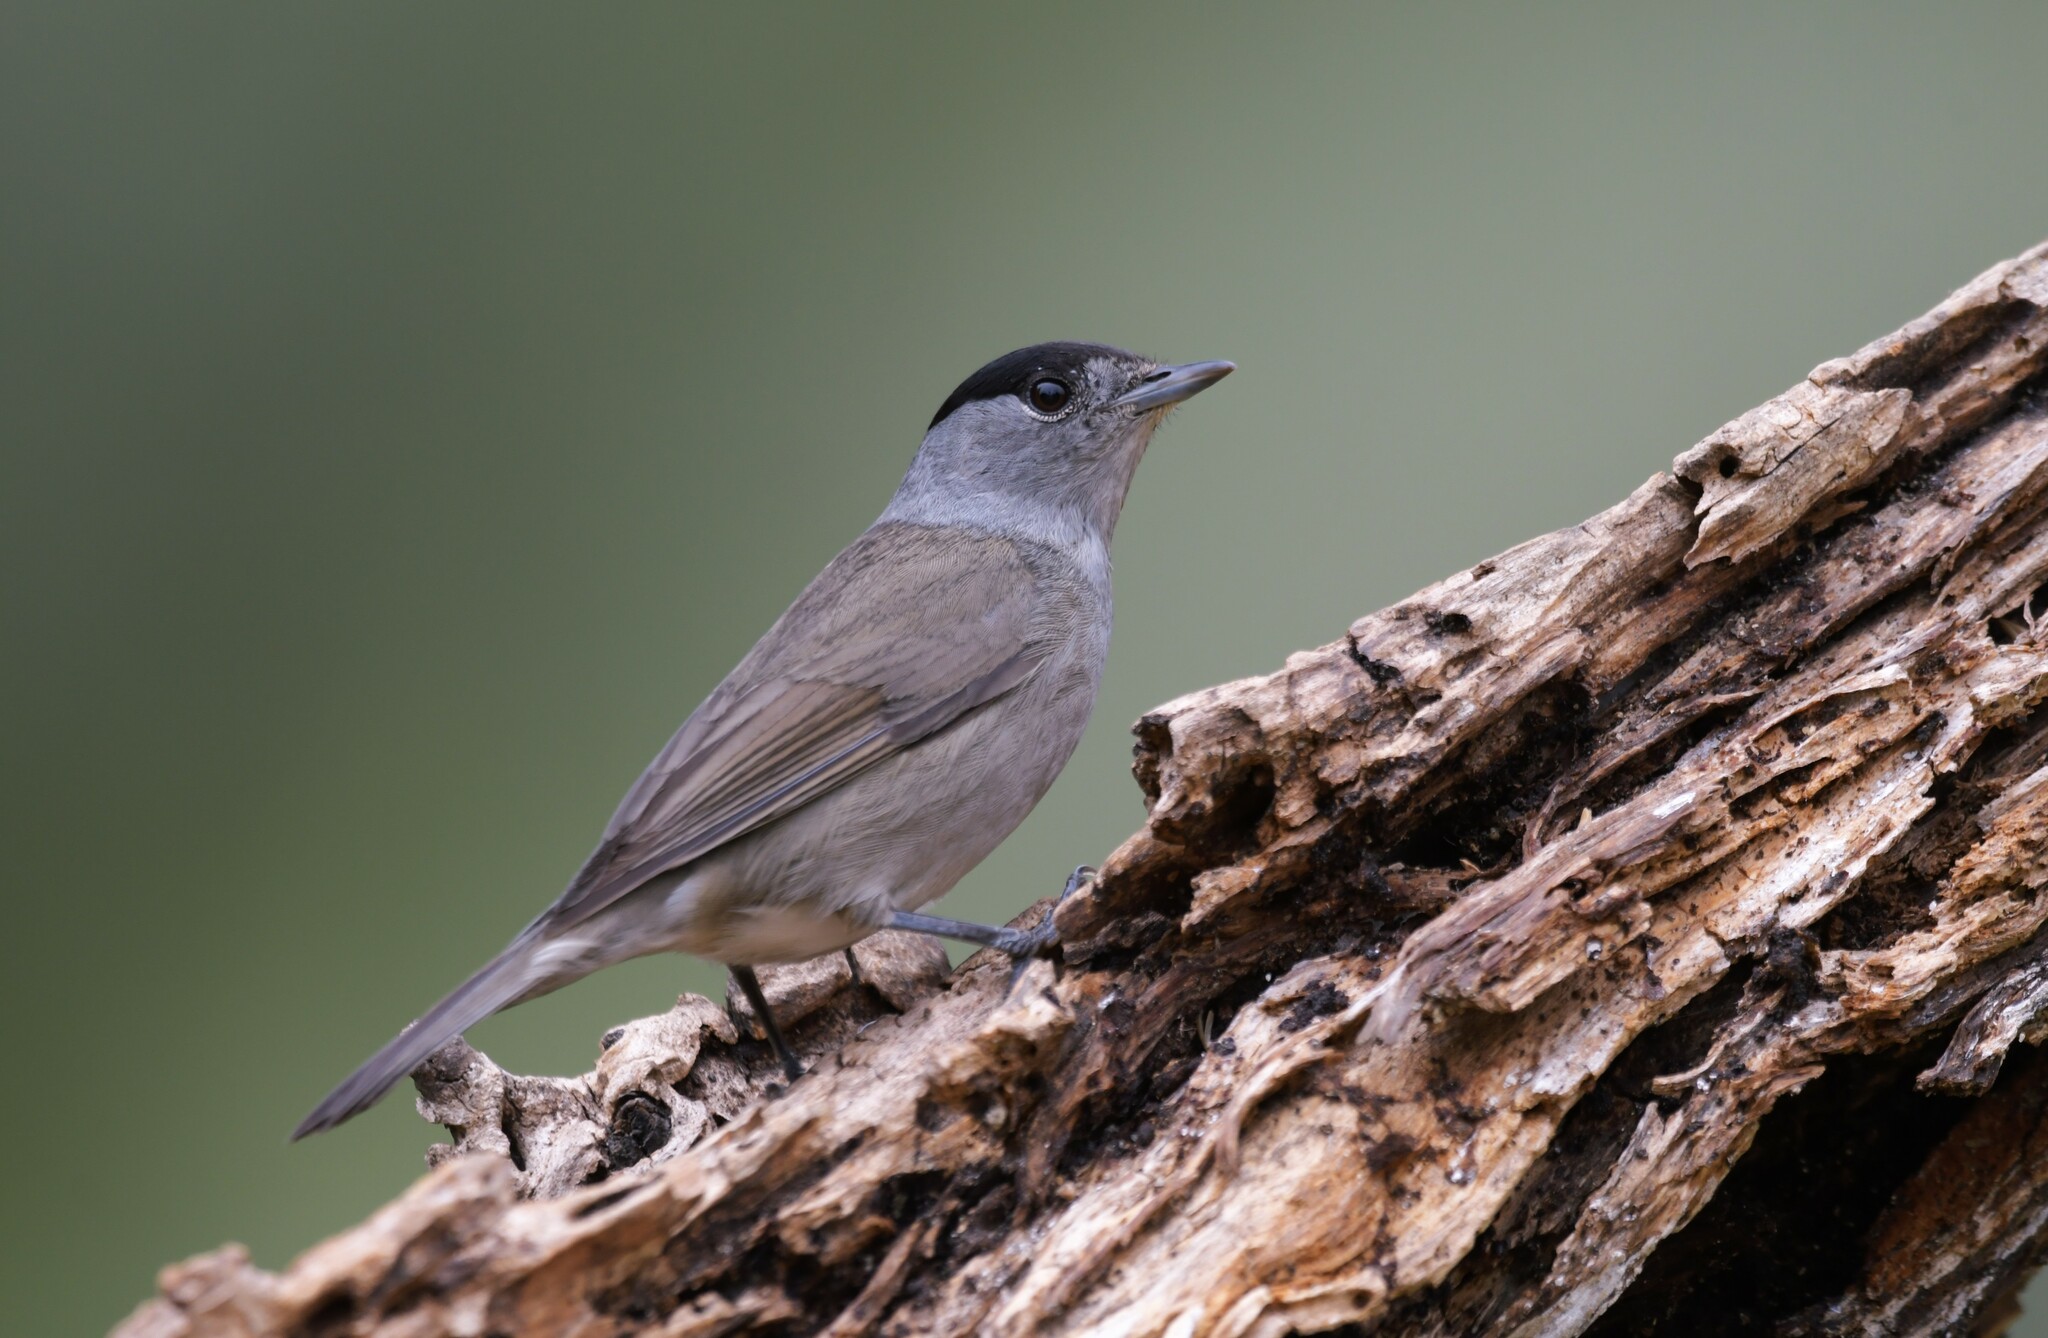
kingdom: Animalia
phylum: Chordata
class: Aves
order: Passeriformes
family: Sylviidae
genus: Sylvia
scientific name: Sylvia atricapilla
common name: Eurasian blackcap
